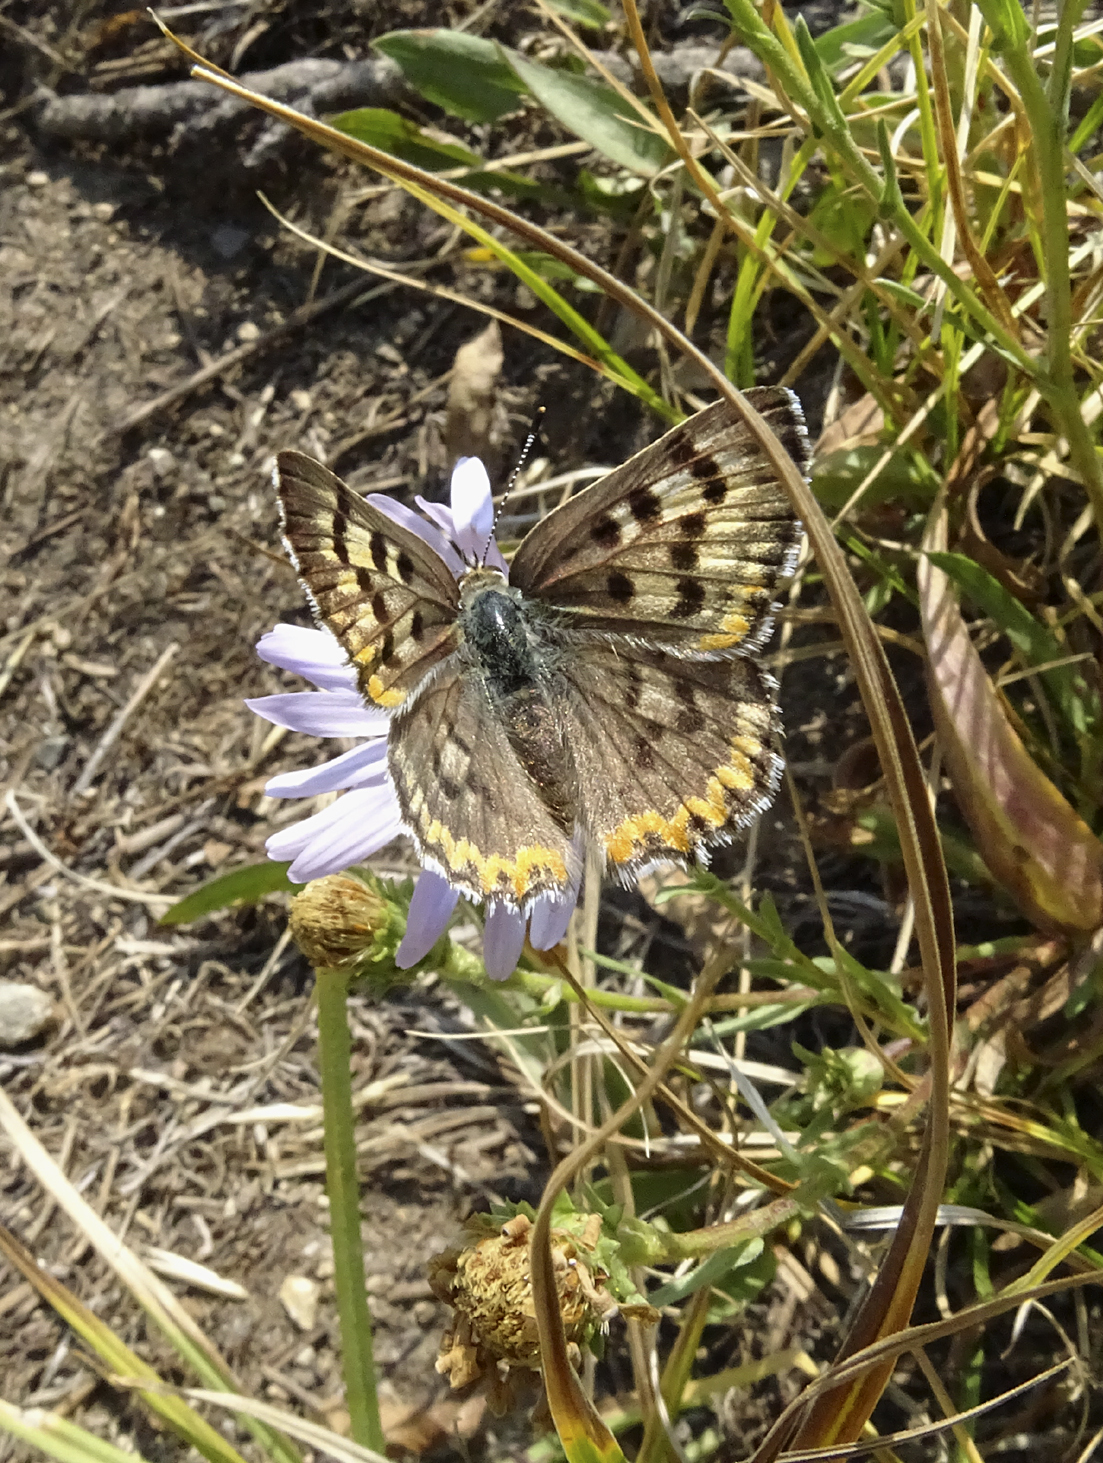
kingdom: Animalia
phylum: Arthropoda
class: Insecta
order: Lepidoptera
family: Lycaenidae
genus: Tharsalea
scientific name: Tharsalea editha
